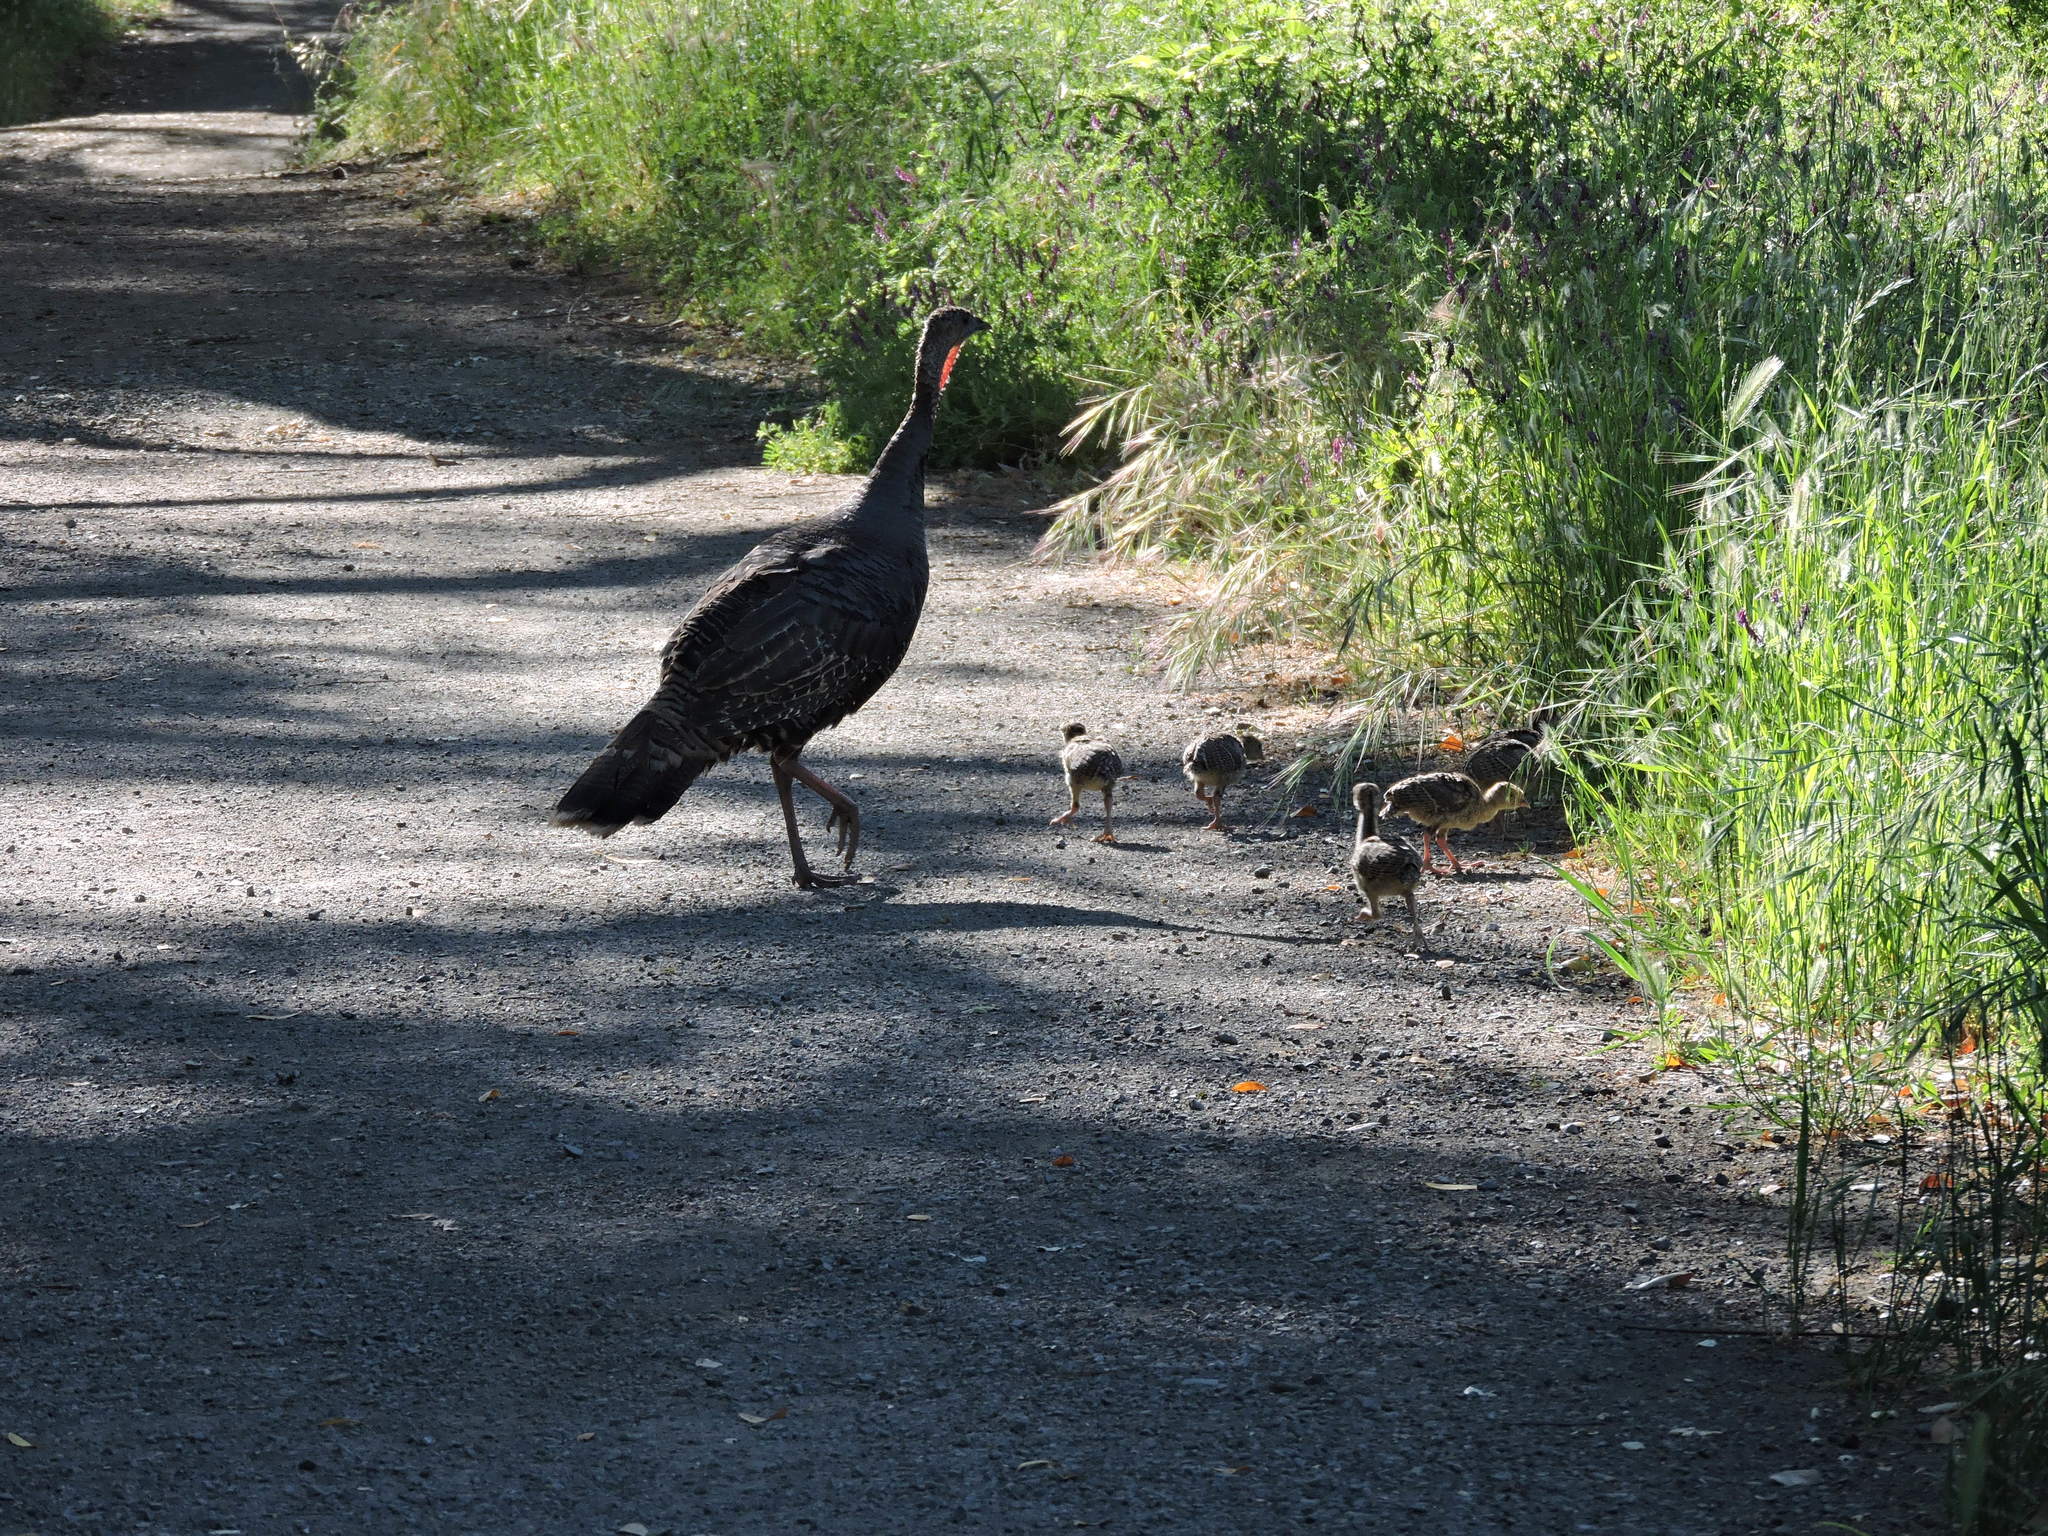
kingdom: Animalia
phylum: Chordata
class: Aves
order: Galliformes
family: Phasianidae
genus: Meleagris
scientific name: Meleagris gallopavo
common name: Wild turkey
